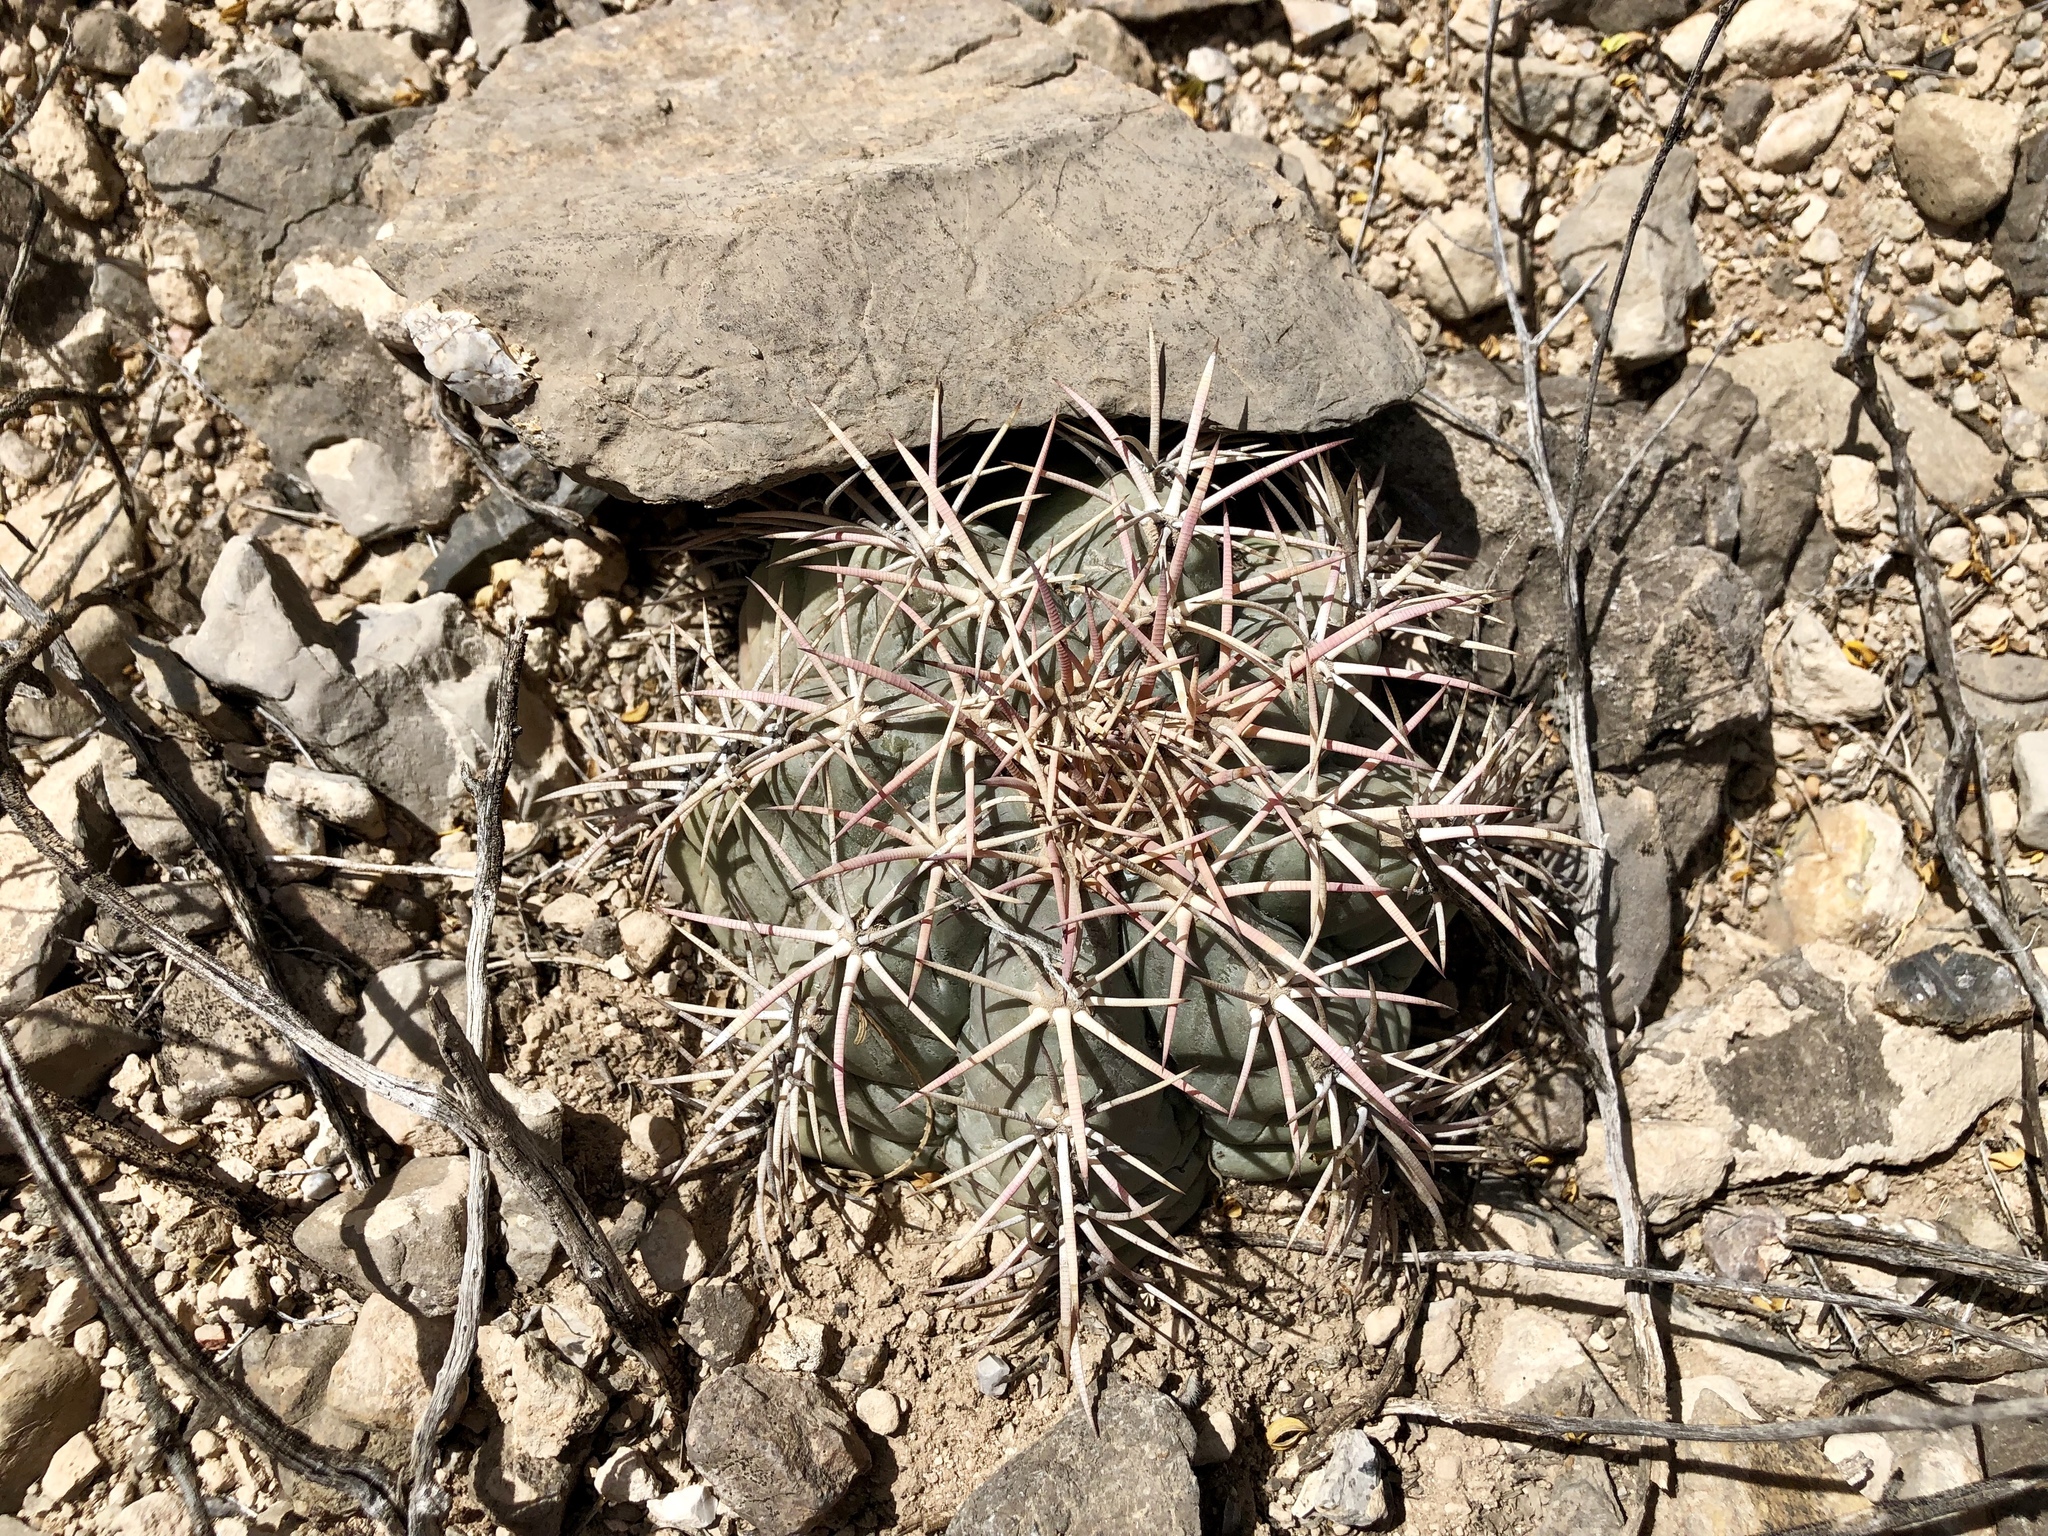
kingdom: Plantae
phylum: Tracheophyta
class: Magnoliopsida
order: Caryophyllales
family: Cactaceae
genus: Echinocactus
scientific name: Echinocactus horizonthalonius
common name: Devilshead
